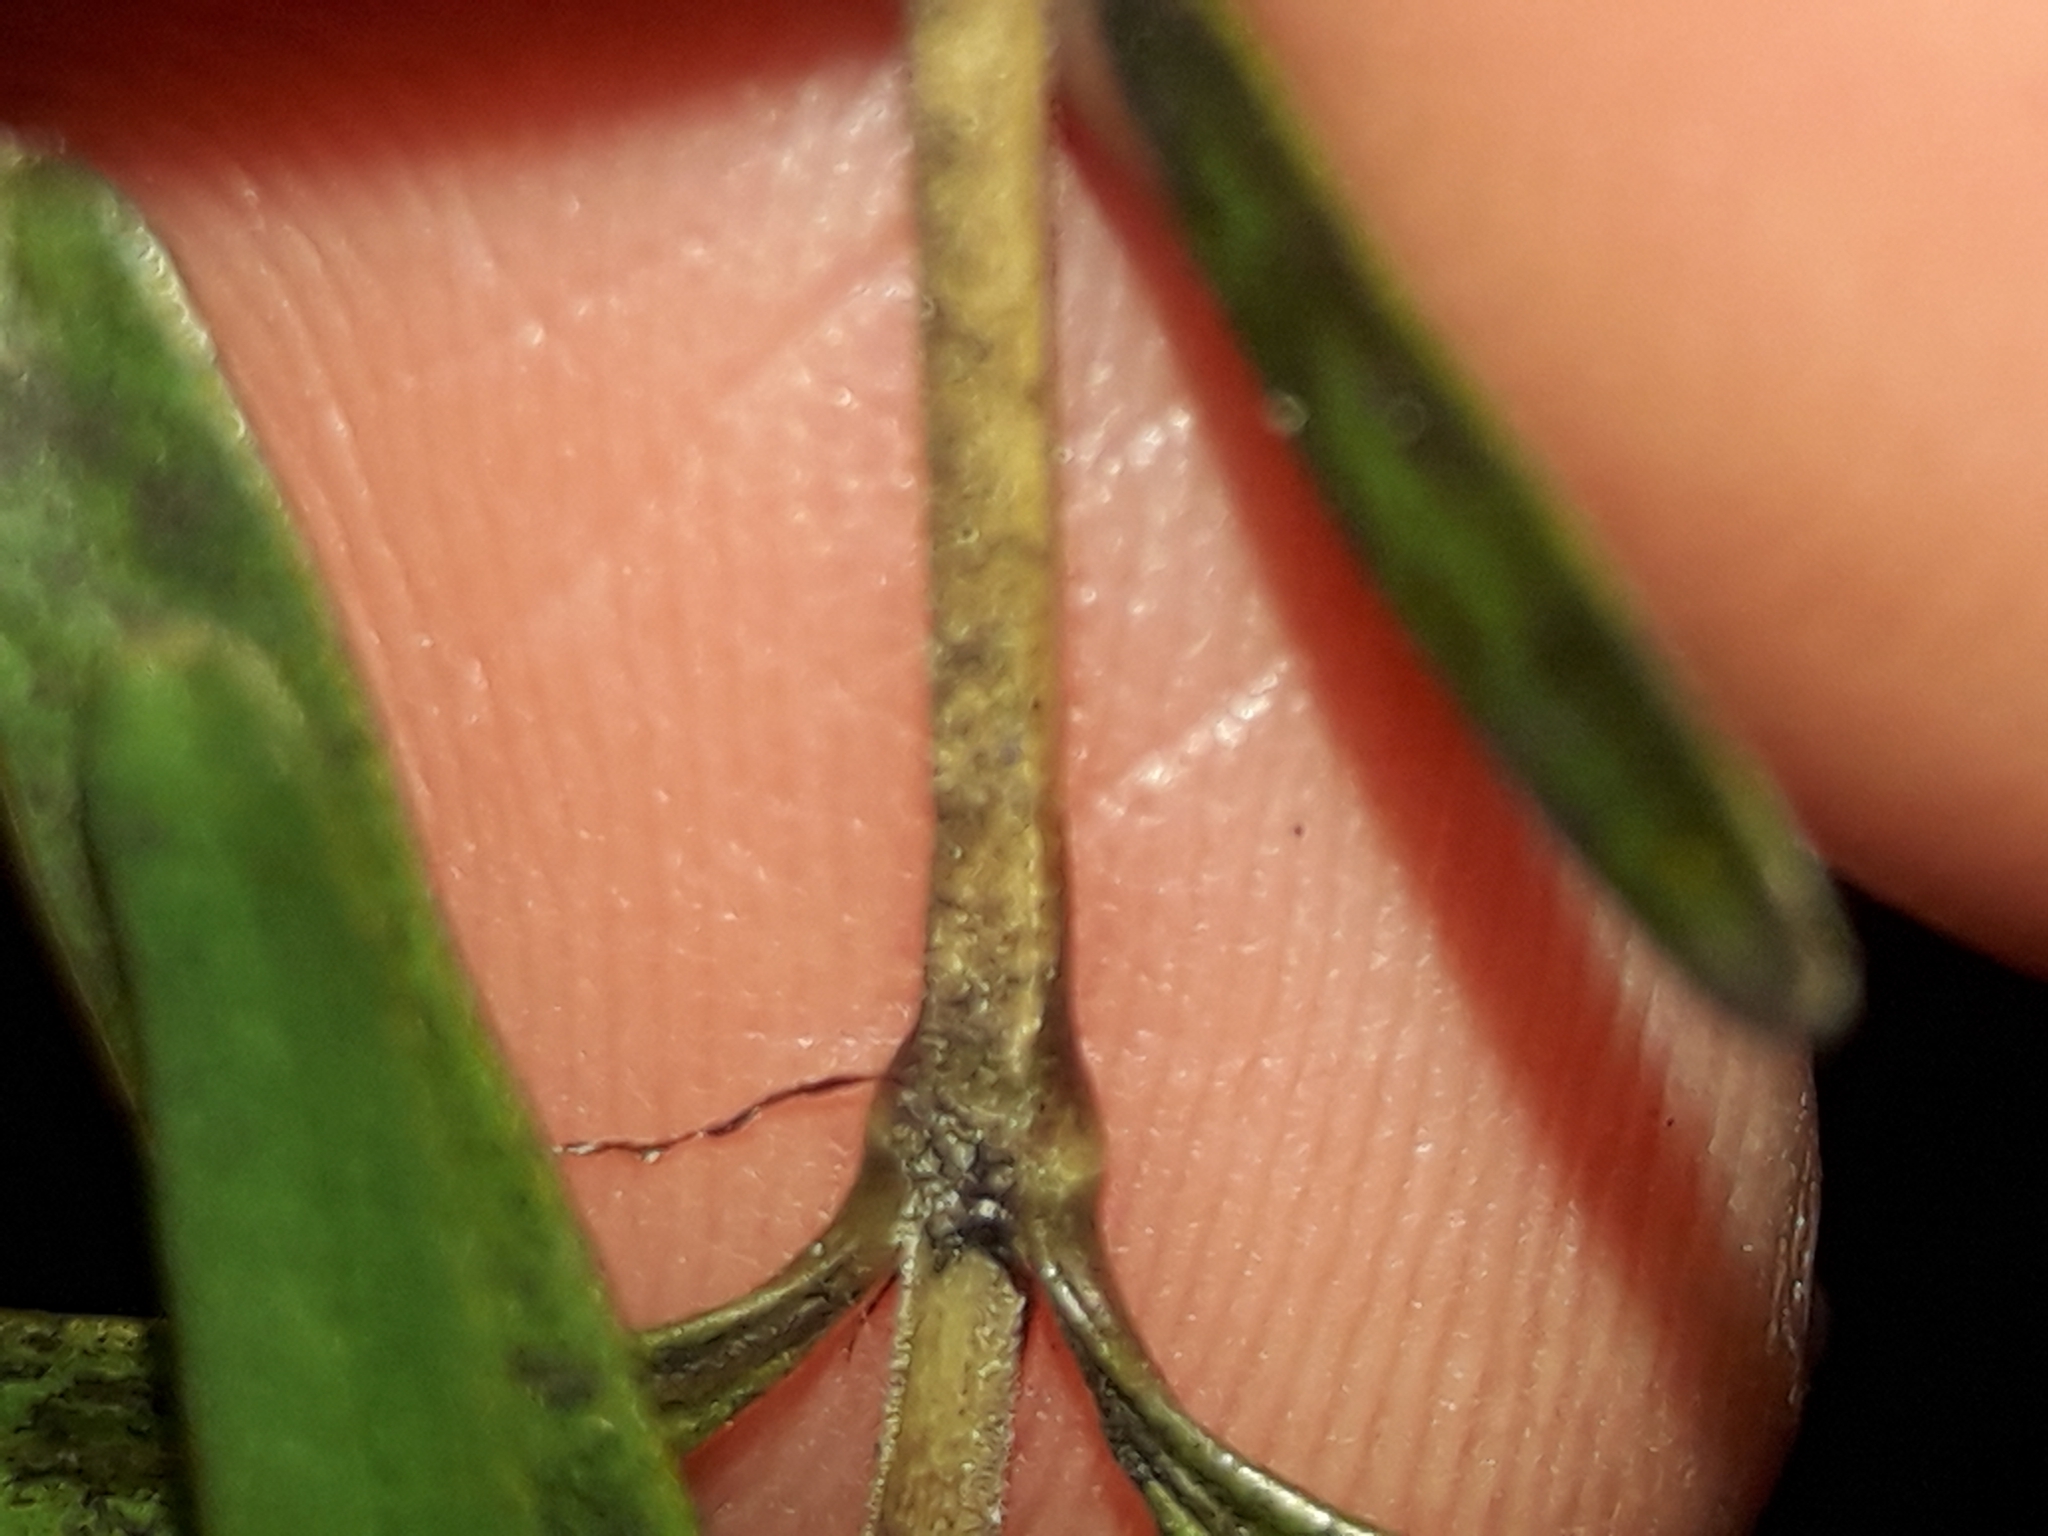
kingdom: Plantae
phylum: Tracheophyta
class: Magnoliopsida
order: Gentianales
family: Rubiaceae
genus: Coprosma
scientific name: Coprosma colensoi
